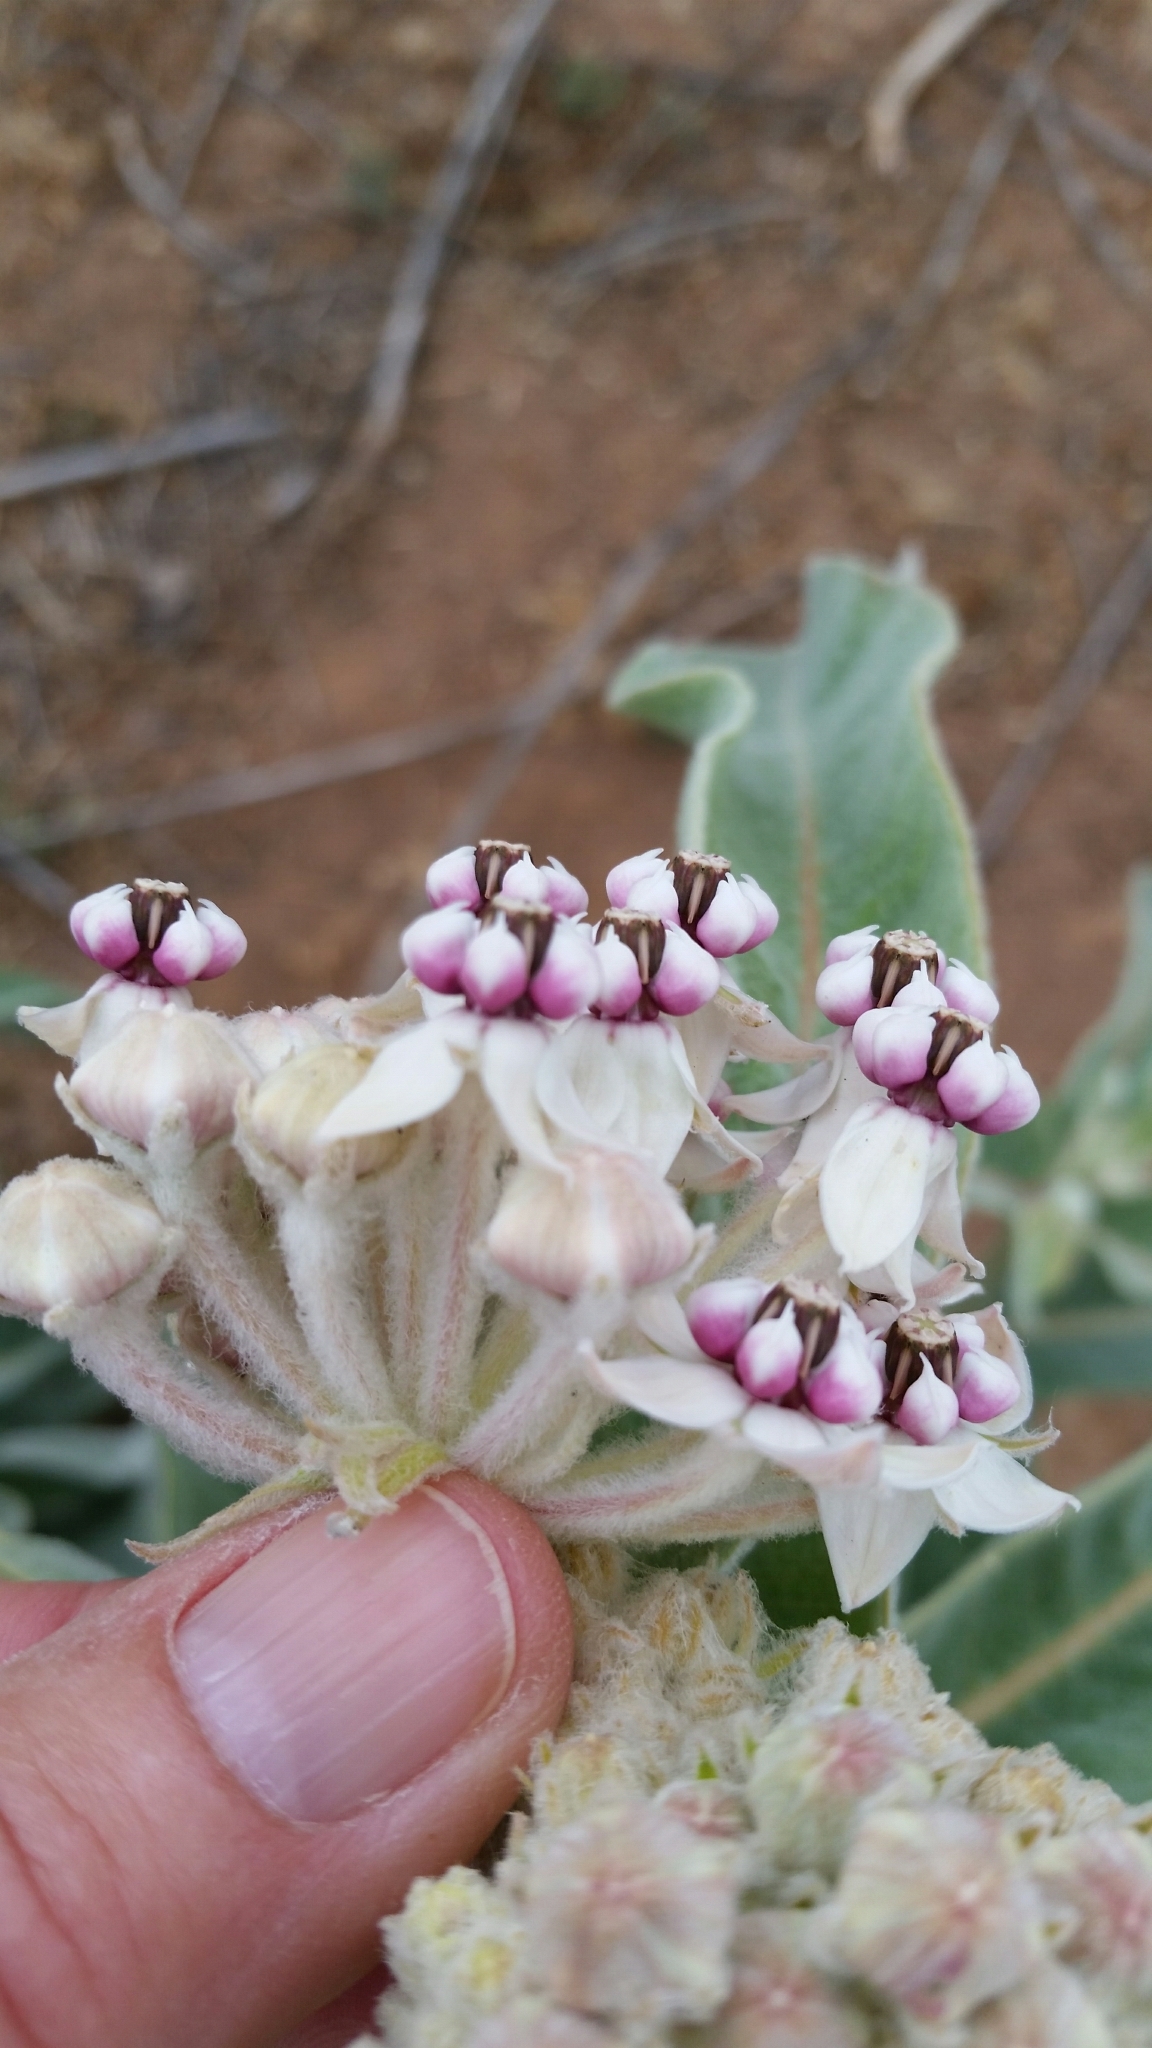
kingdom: Plantae
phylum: Tracheophyta
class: Magnoliopsida
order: Gentianales
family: Apocynaceae
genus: Asclepias
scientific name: Asclepias eriocarpa
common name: Indian milkweed
